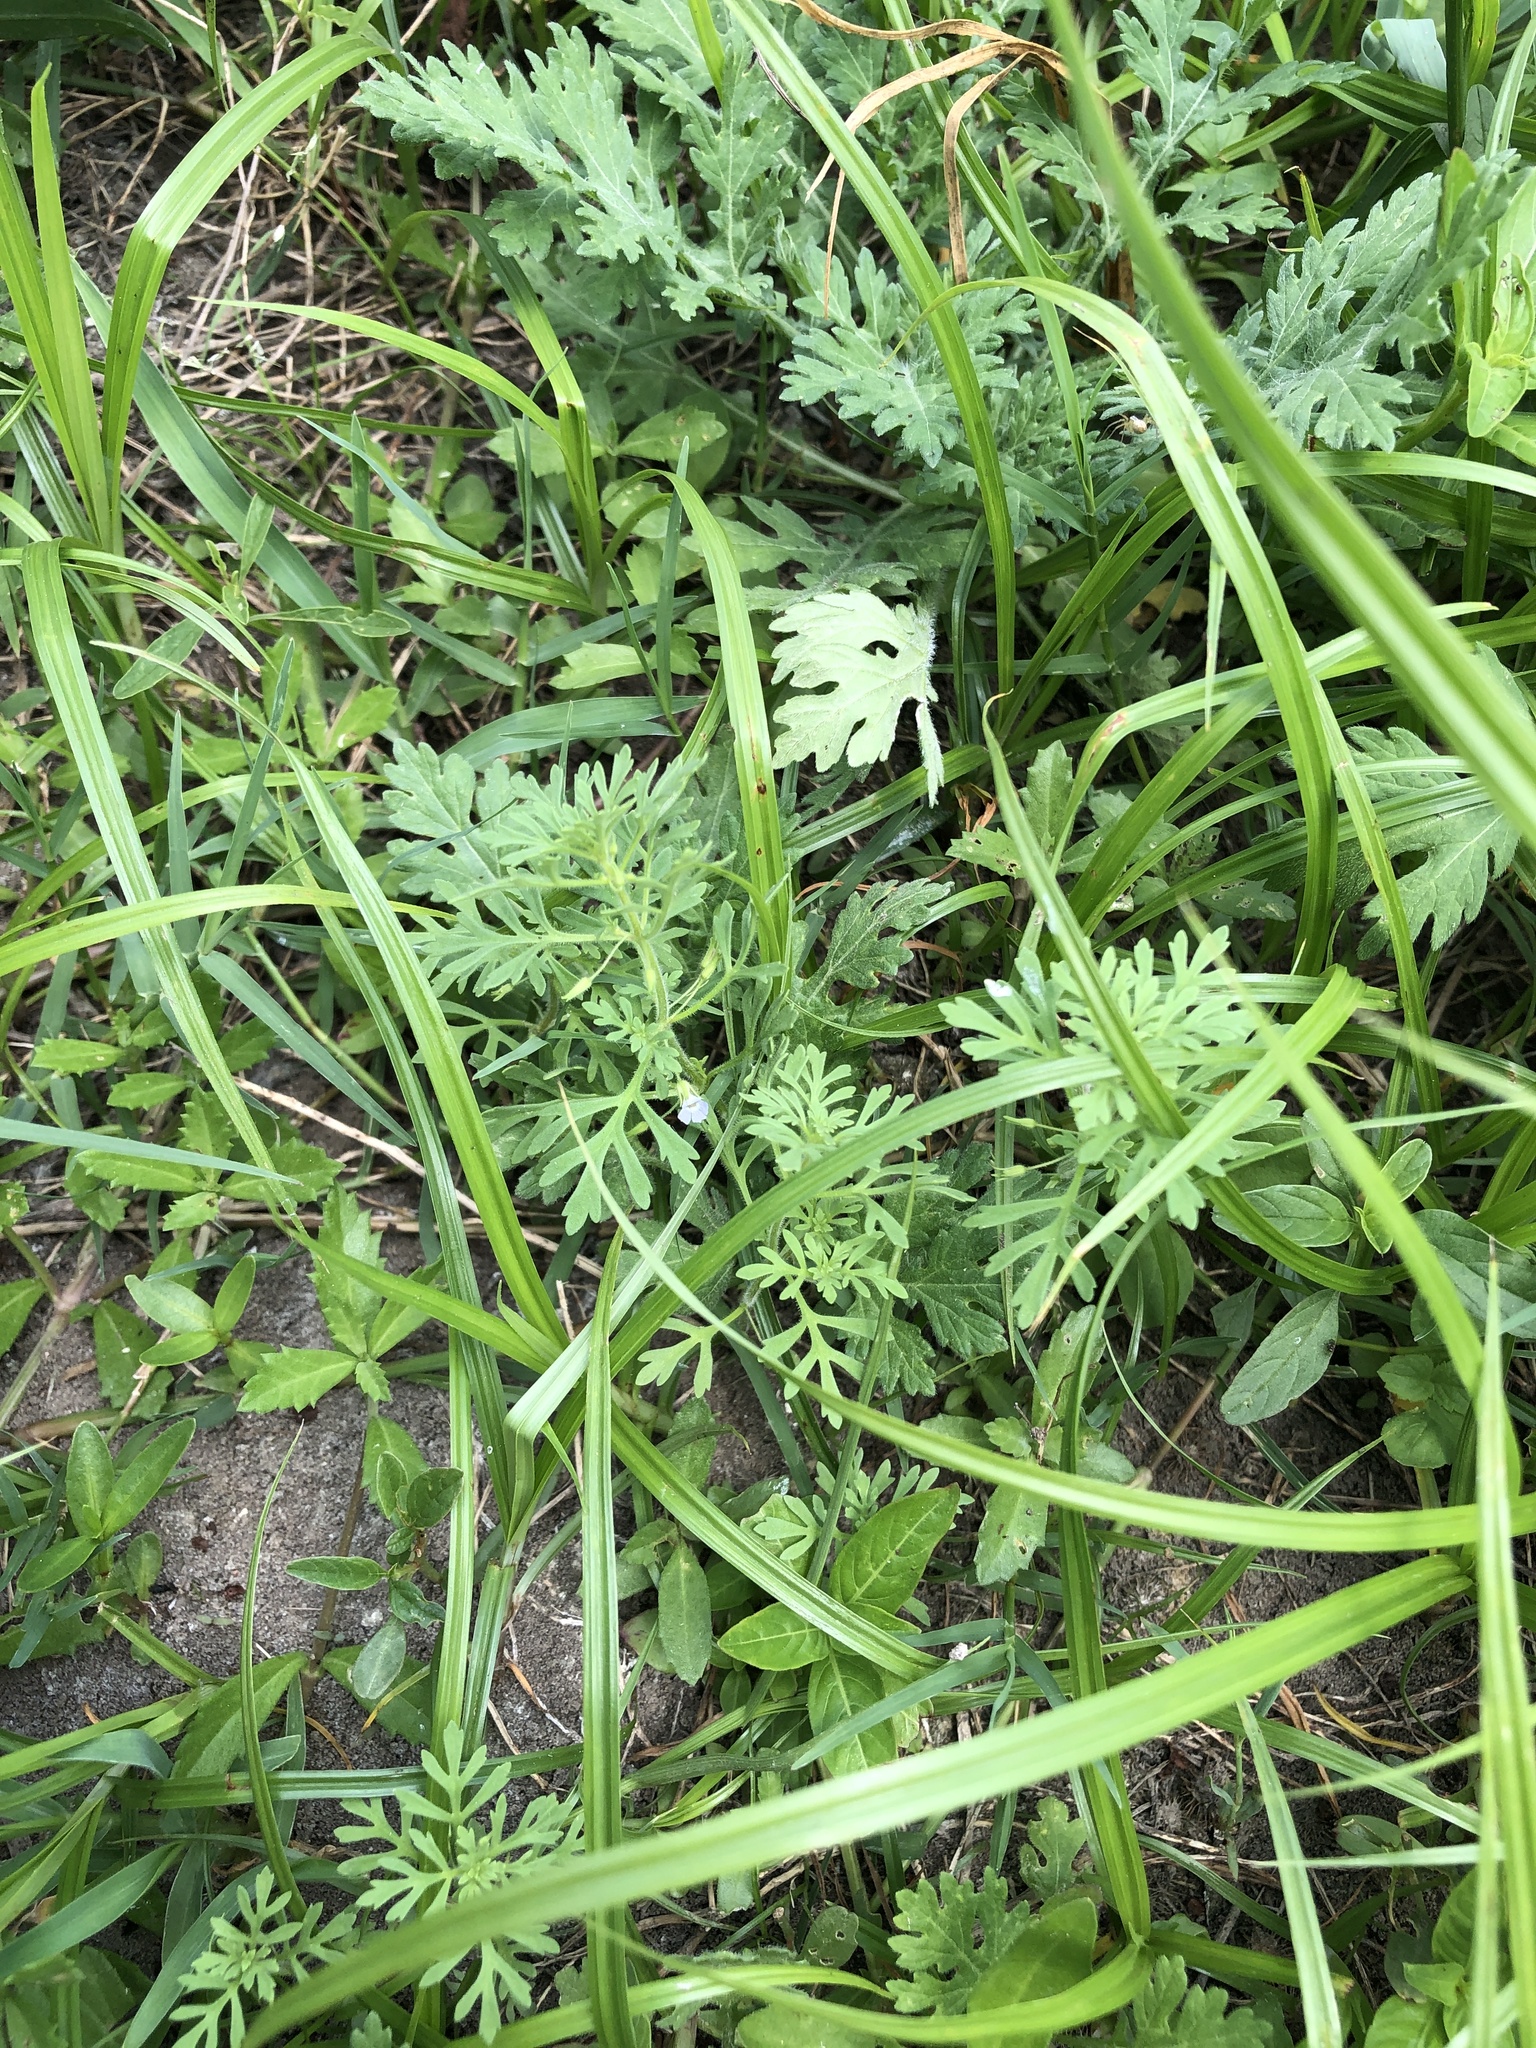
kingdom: Plantae
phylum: Tracheophyta
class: Magnoliopsida
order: Lamiales
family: Plantaginaceae
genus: Leucospora
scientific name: Leucospora multifida
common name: Narrow-leaf paleseed
